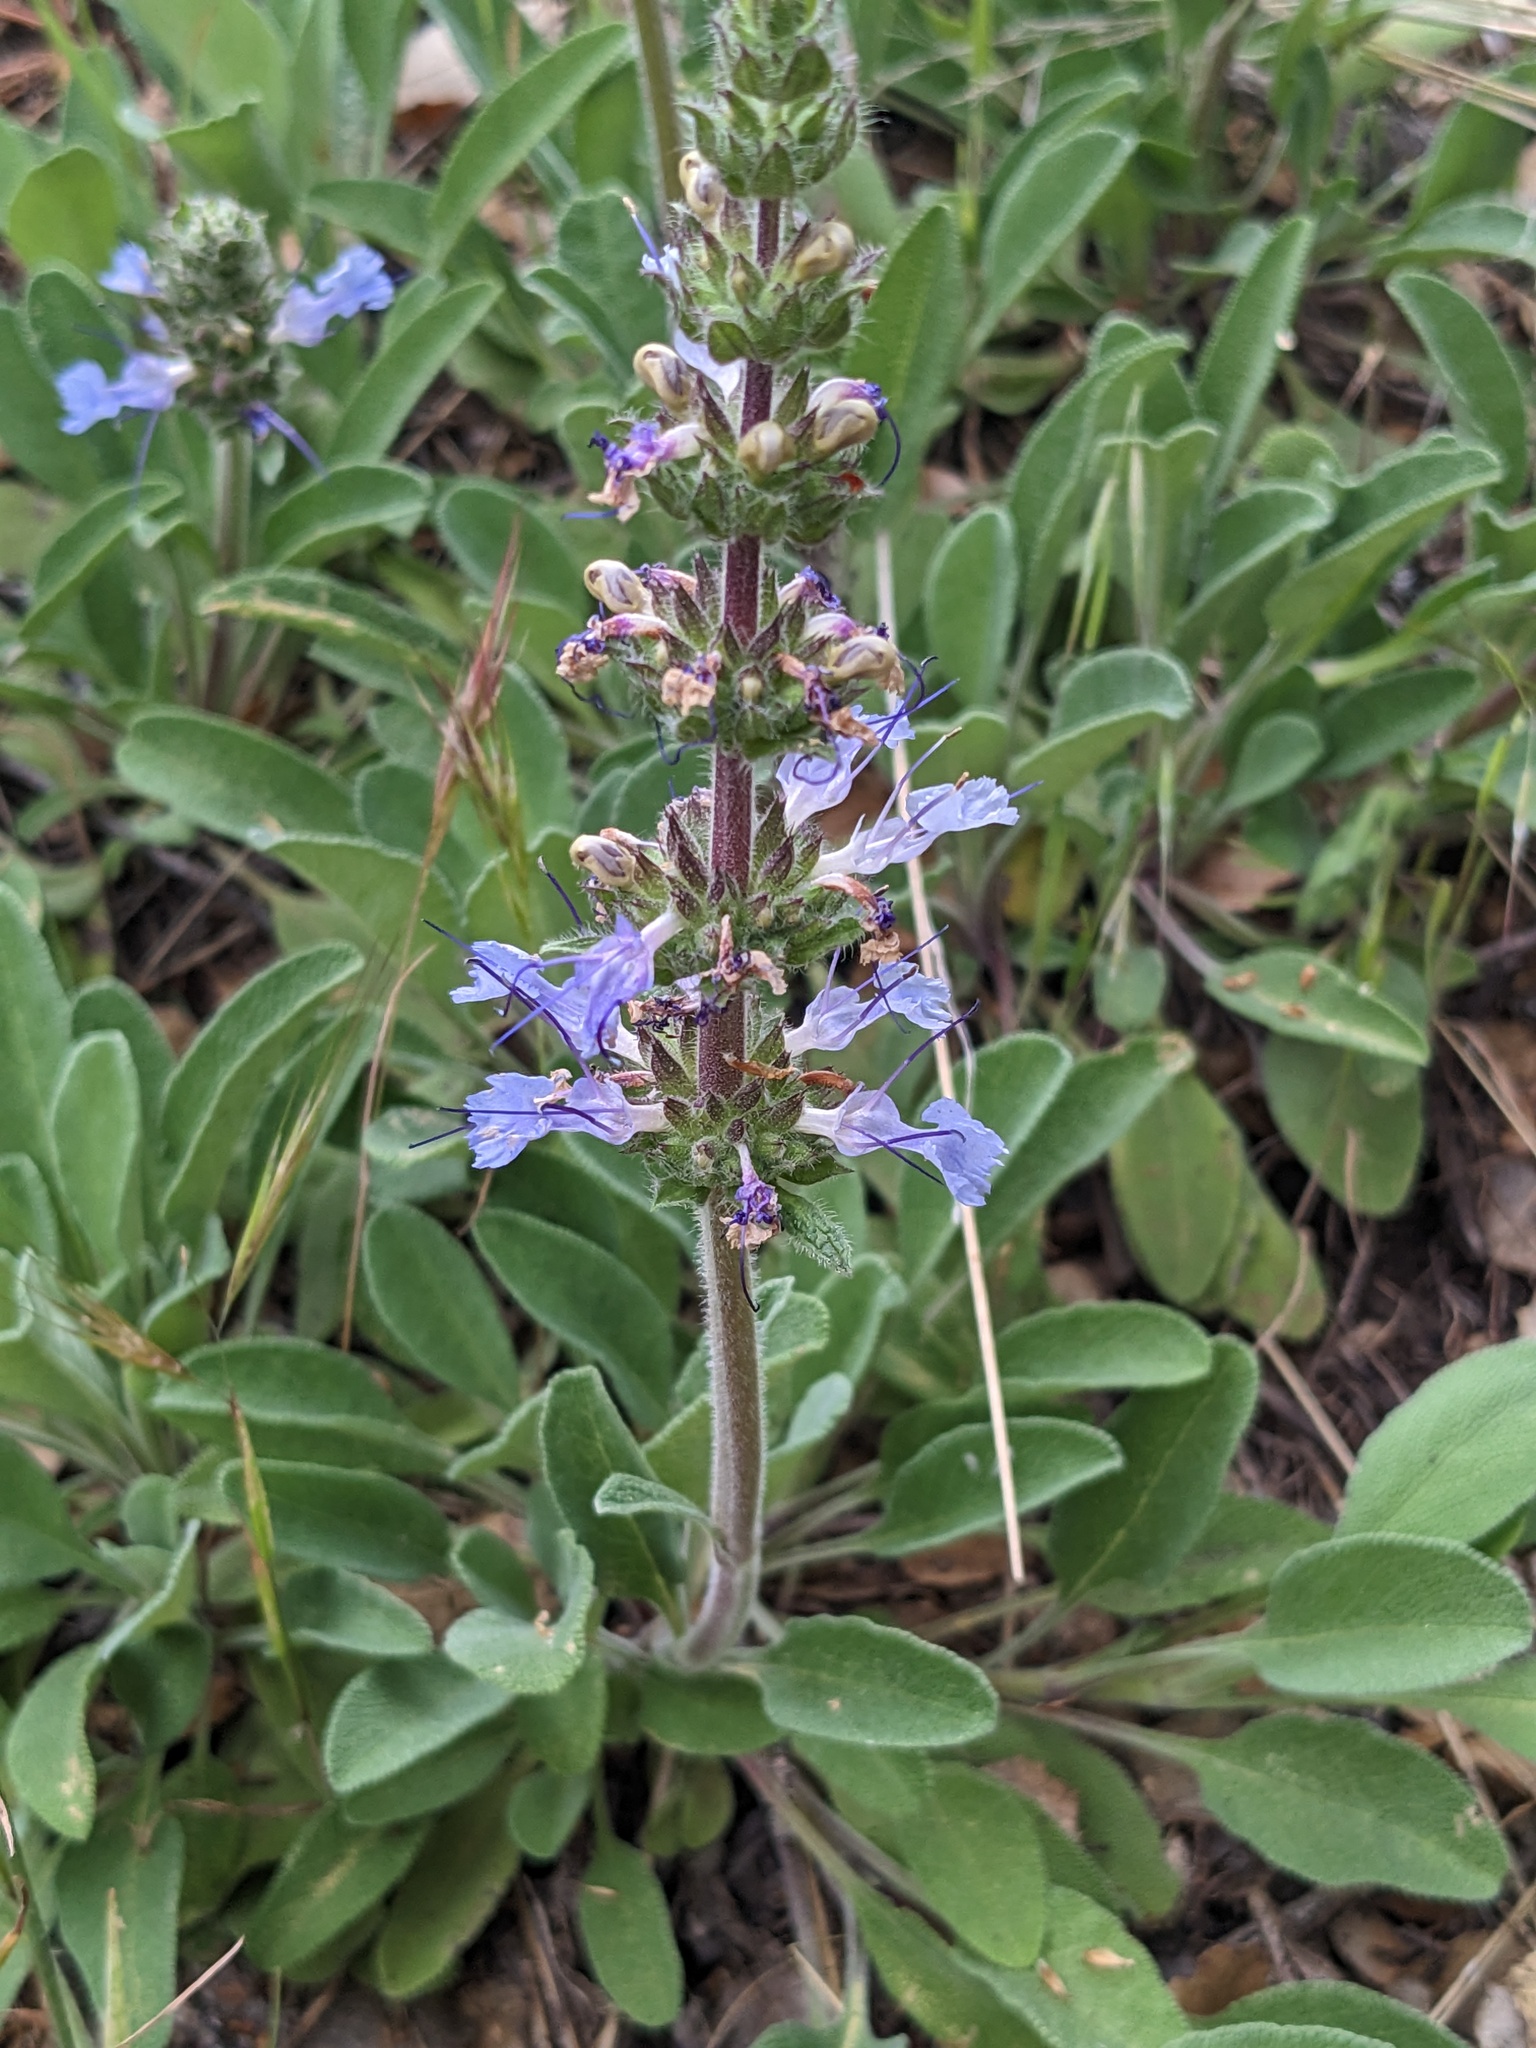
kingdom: Plantae
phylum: Tracheophyta
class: Magnoliopsida
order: Lamiales
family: Lamiaceae
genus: Salvia
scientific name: Salvia sonomensis
